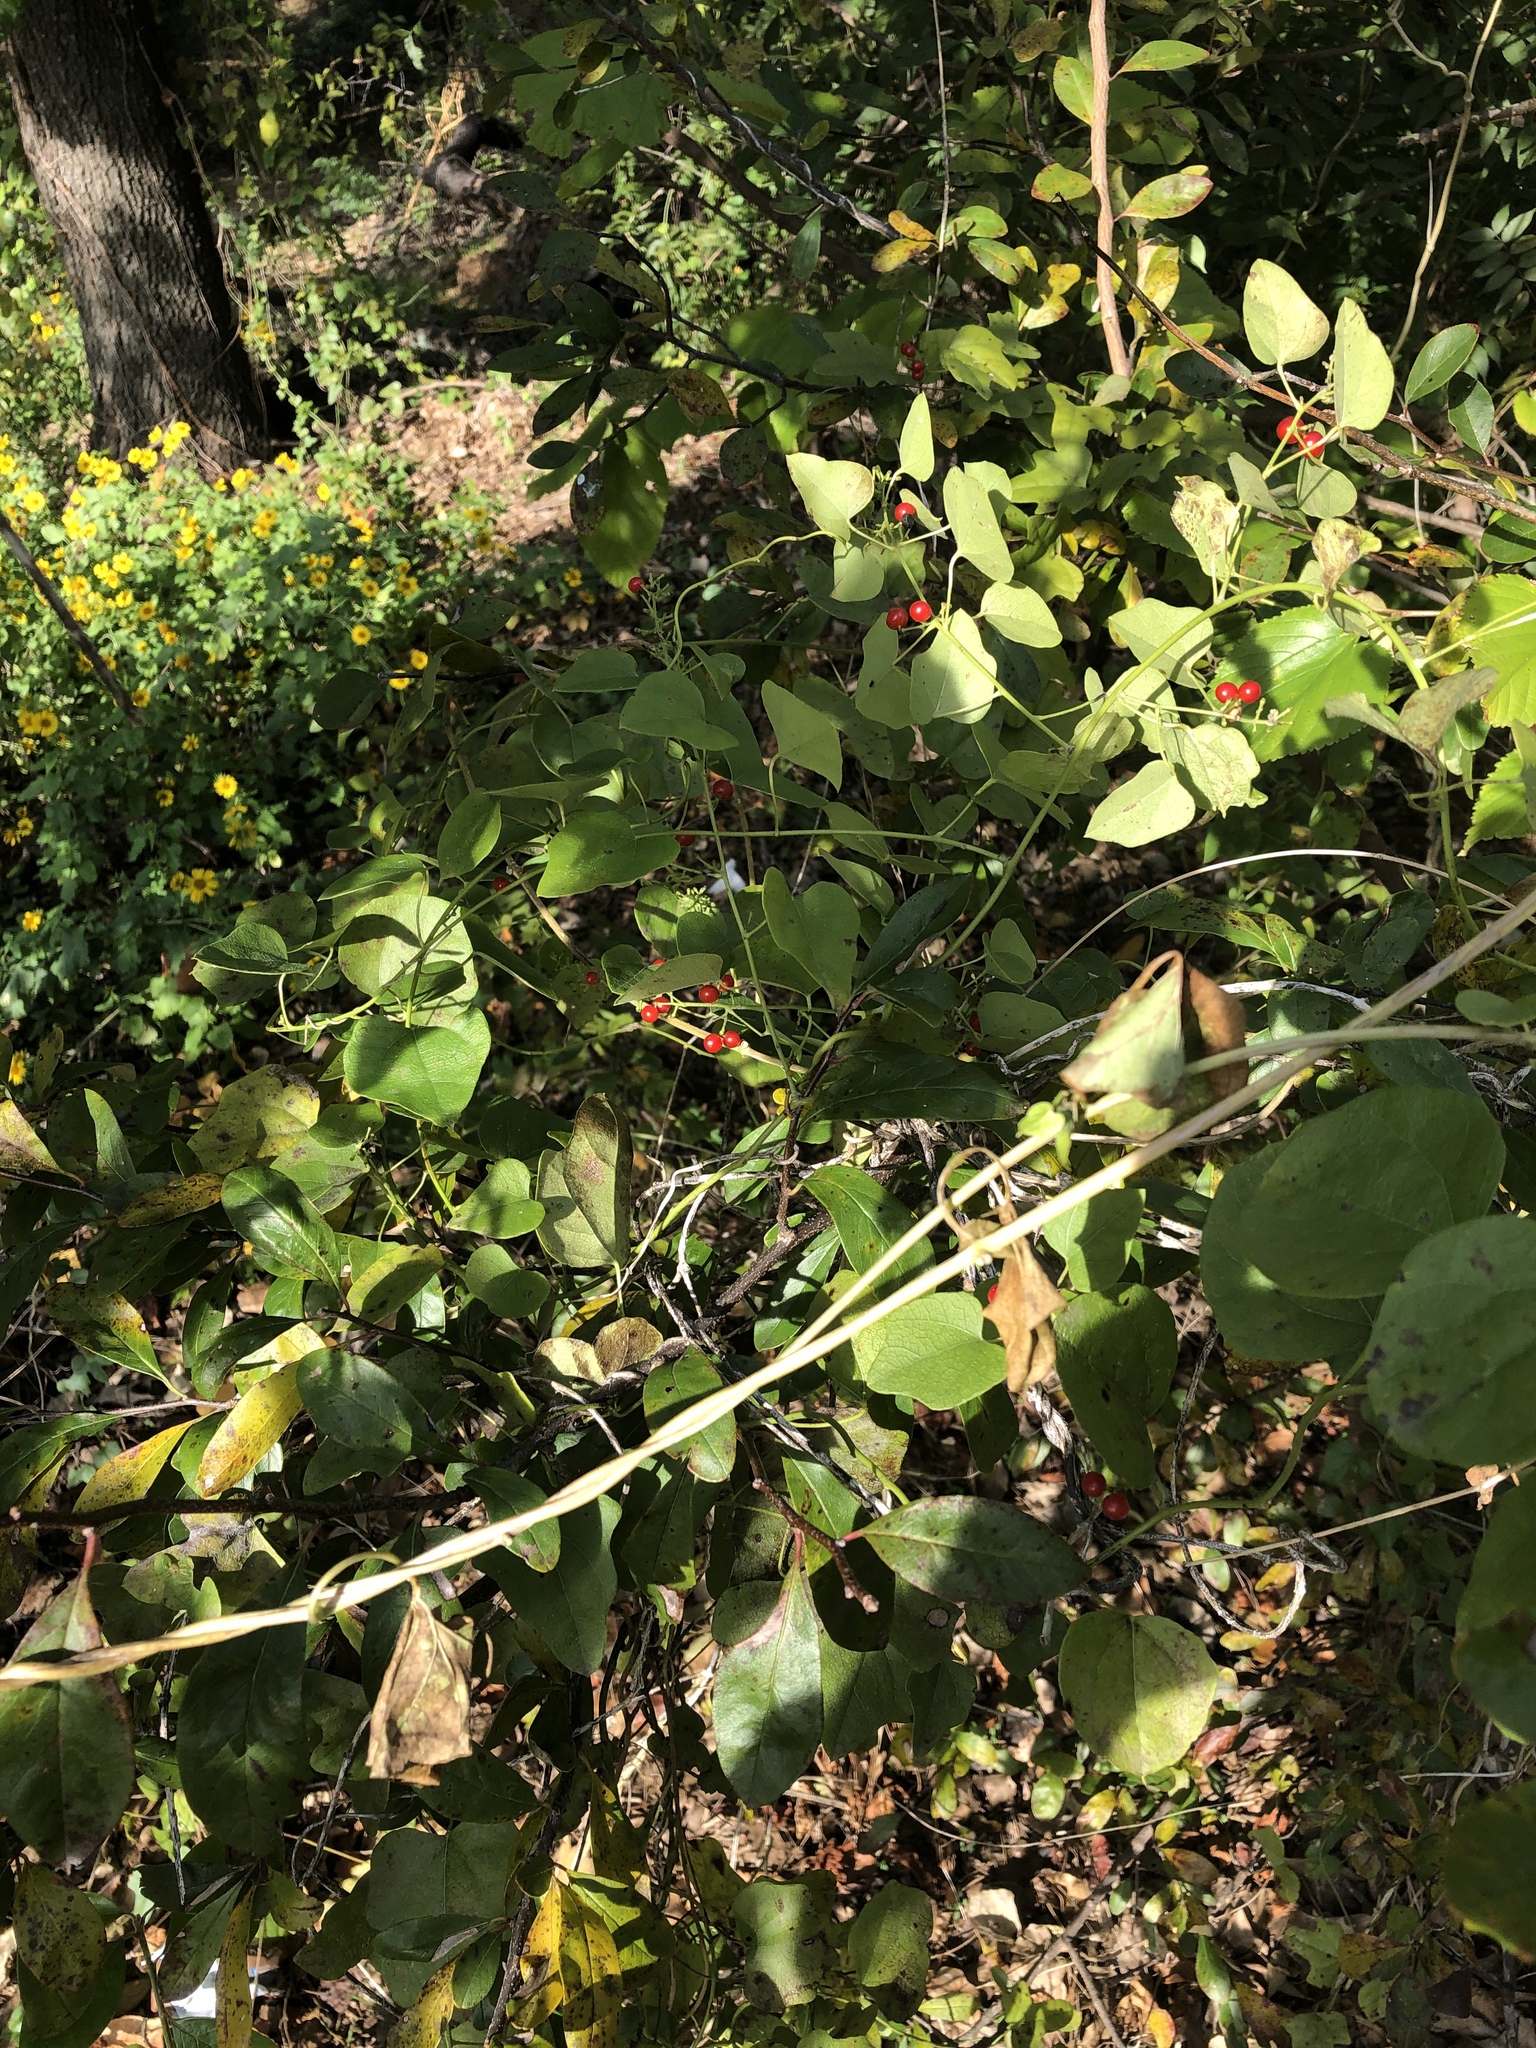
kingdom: Plantae
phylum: Tracheophyta
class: Magnoliopsida
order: Ranunculales
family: Menispermaceae
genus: Cocculus
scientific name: Cocculus carolinus
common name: Carolina moonseed
